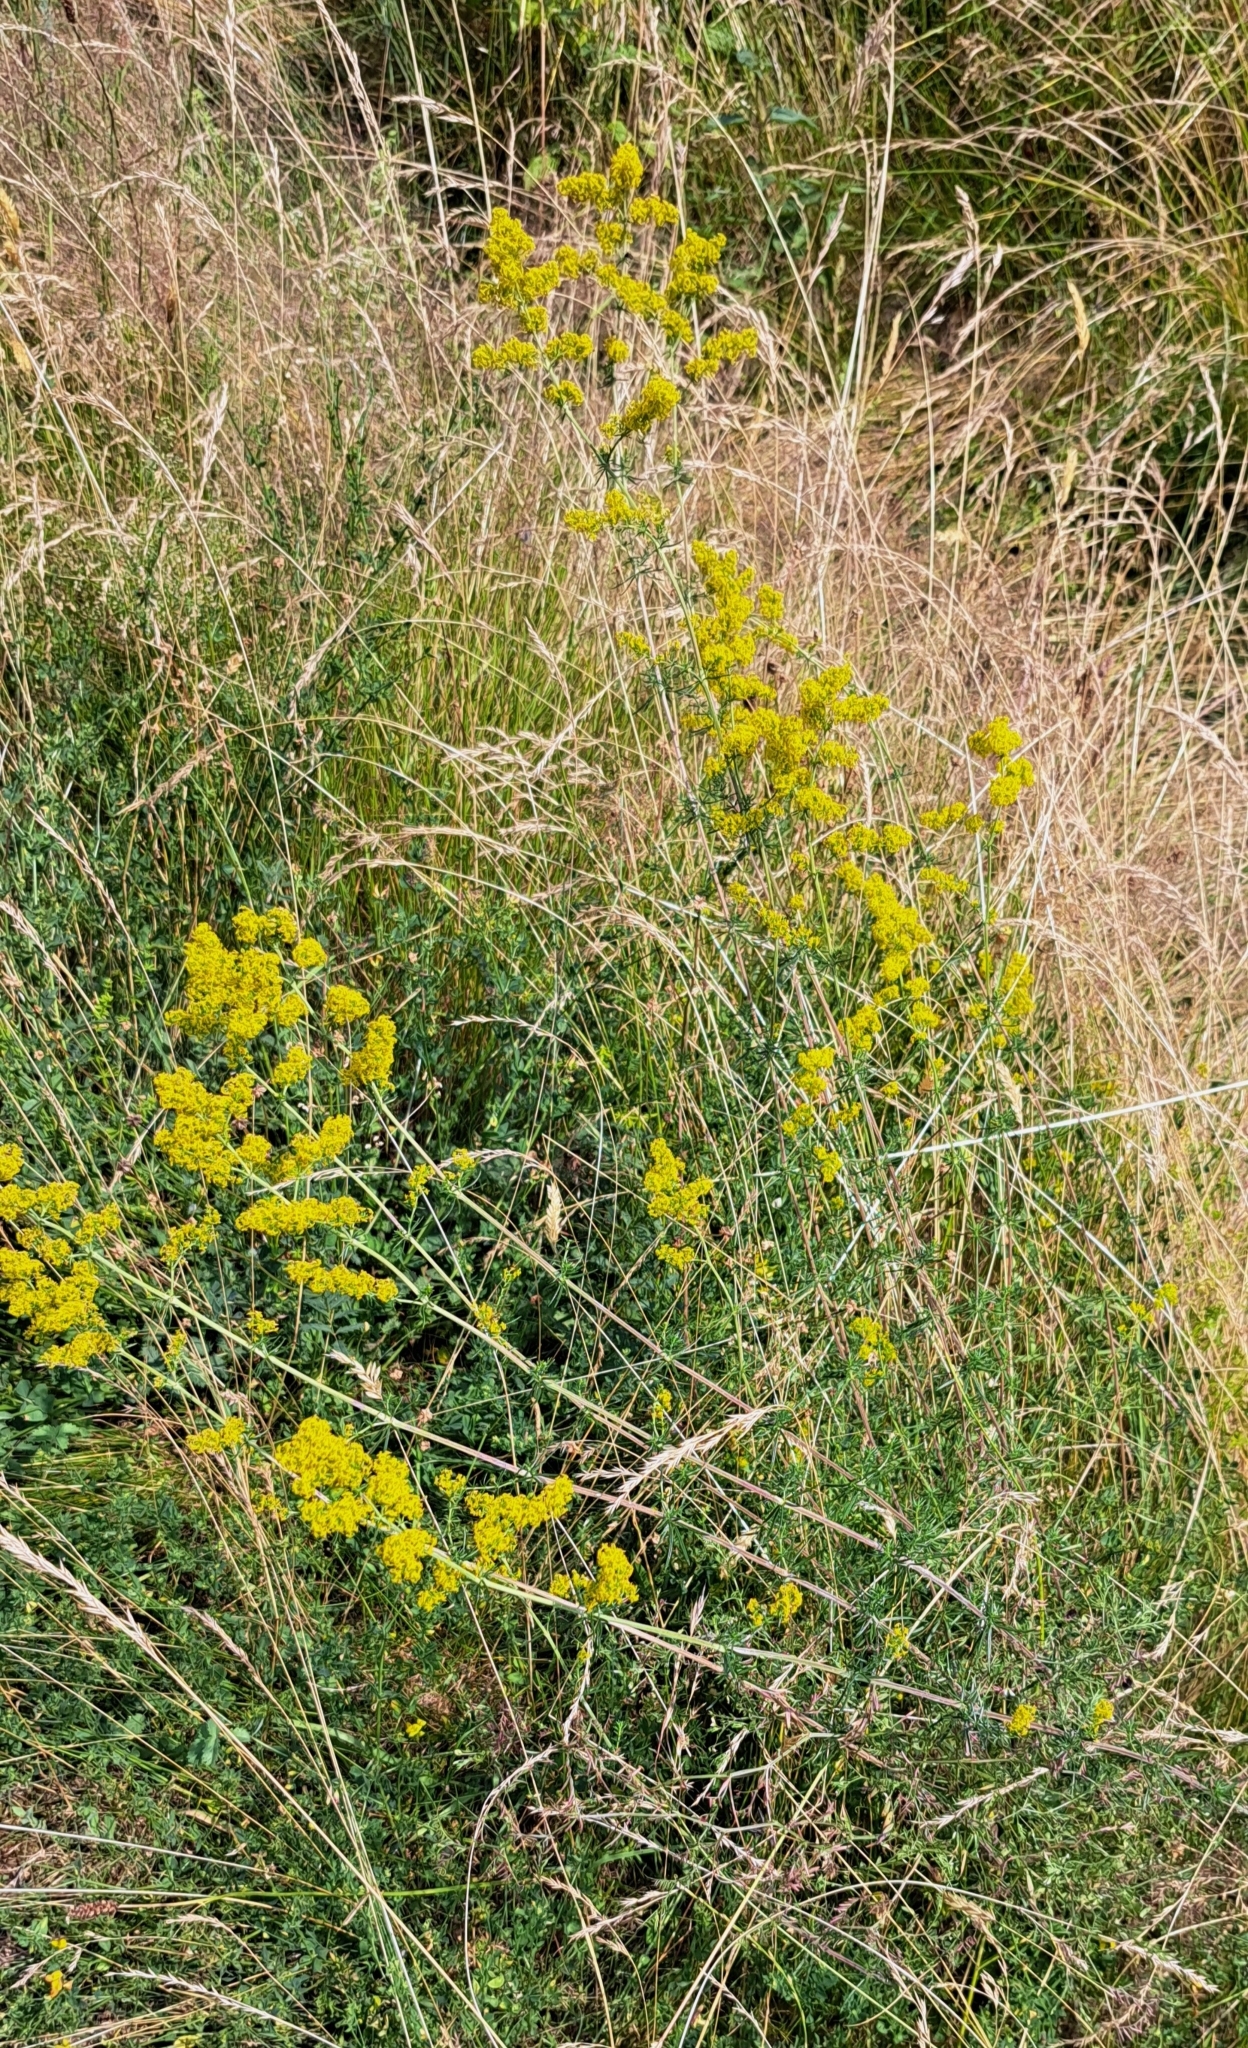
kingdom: Plantae
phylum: Tracheophyta
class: Magnoliopsida
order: Gentianales
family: Rubiaceae
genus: Galium
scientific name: Galium verum
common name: Lady's bedstraw
